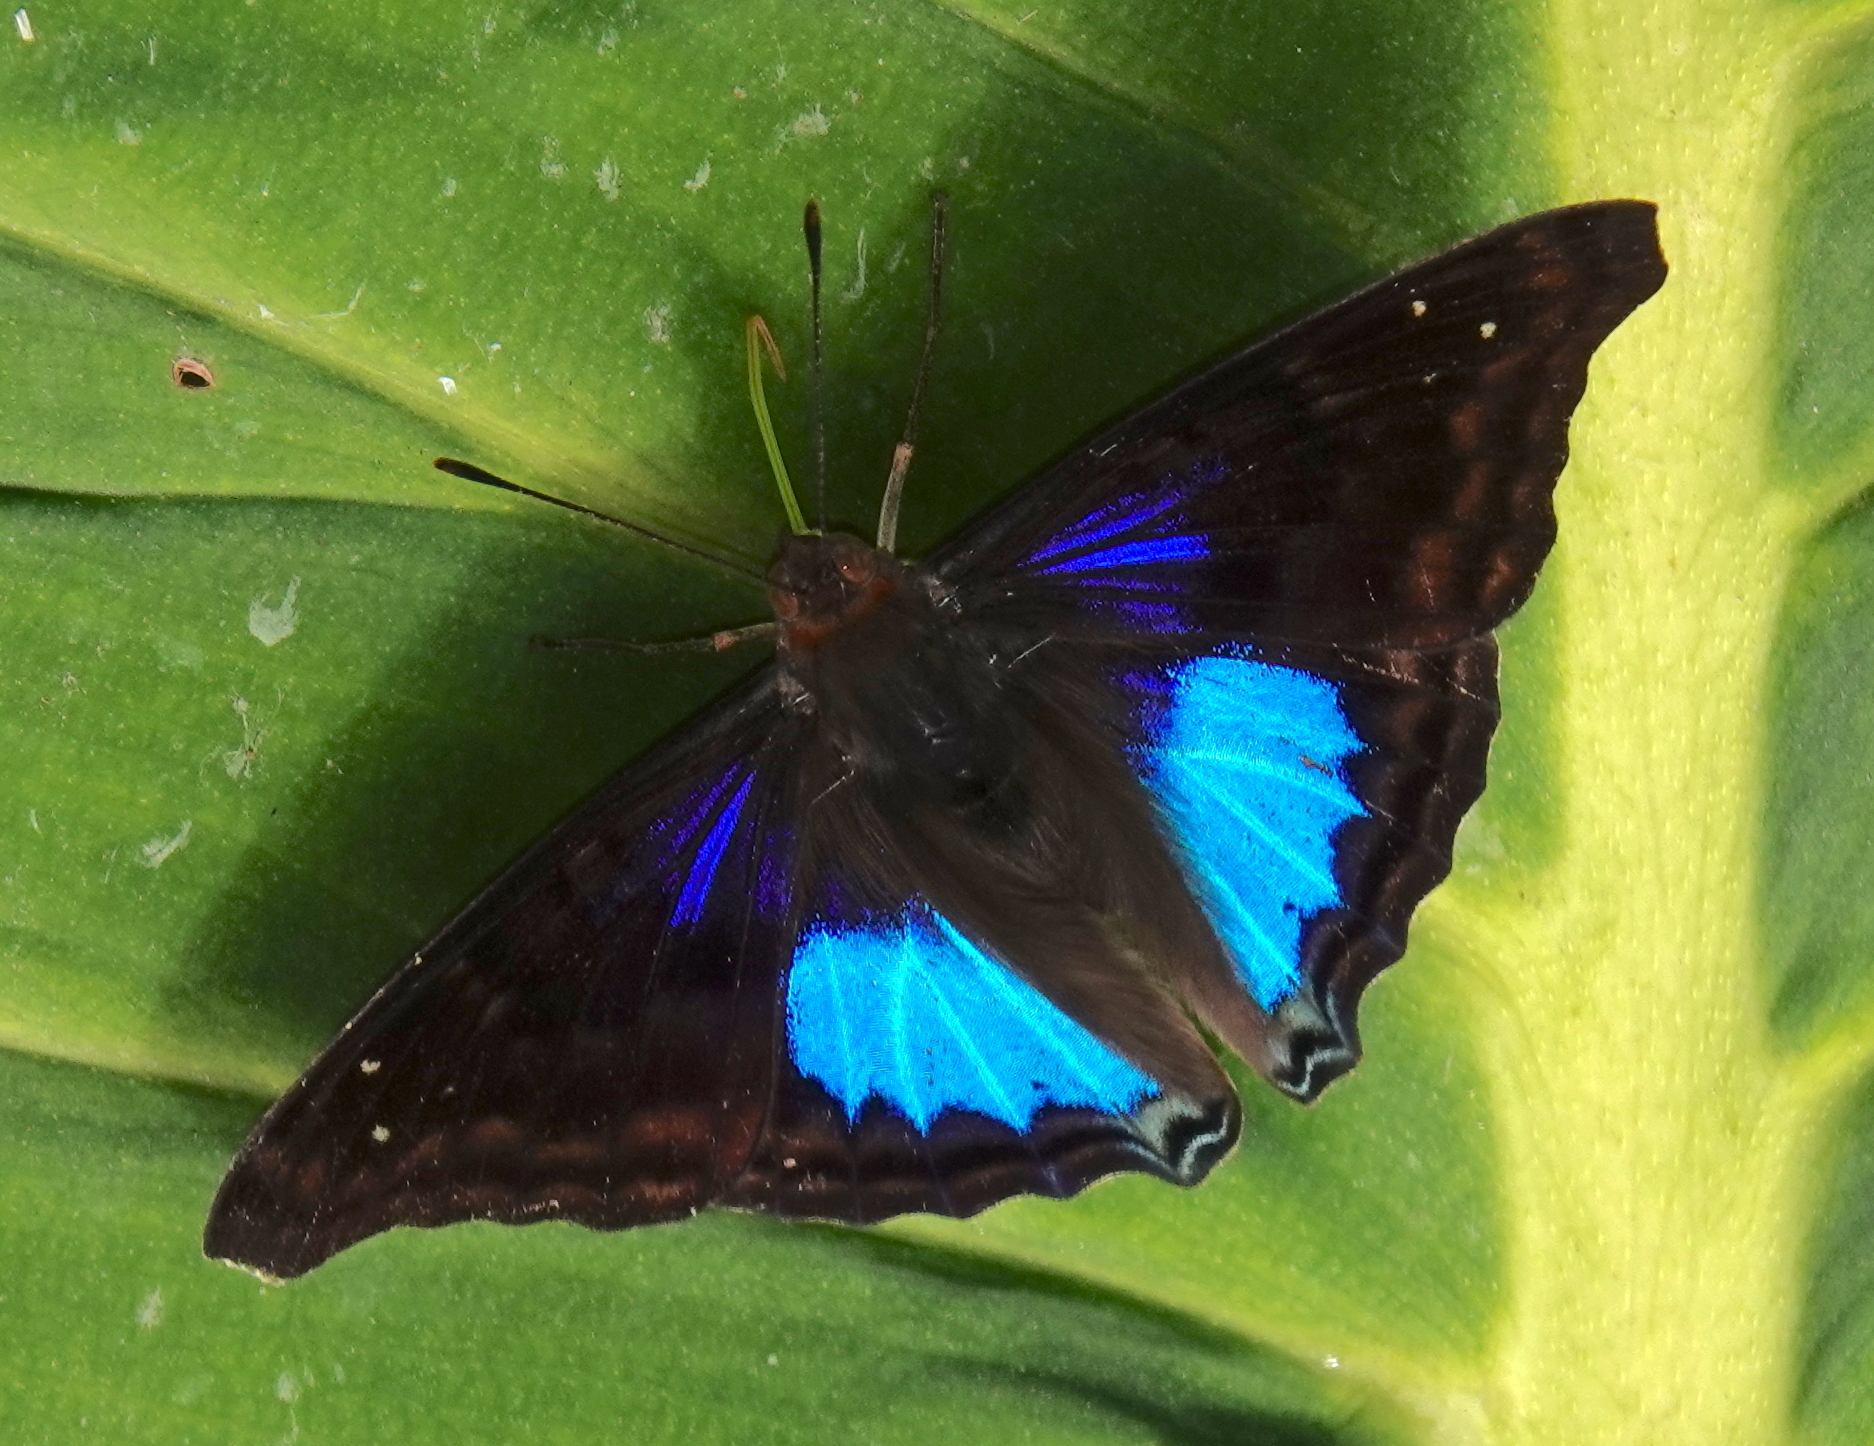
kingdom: Animalia
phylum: Arthropoda
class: Insecta
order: Lepidoptera
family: Nymphalidae
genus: Doxocopa
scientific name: Doxocopa cyane
